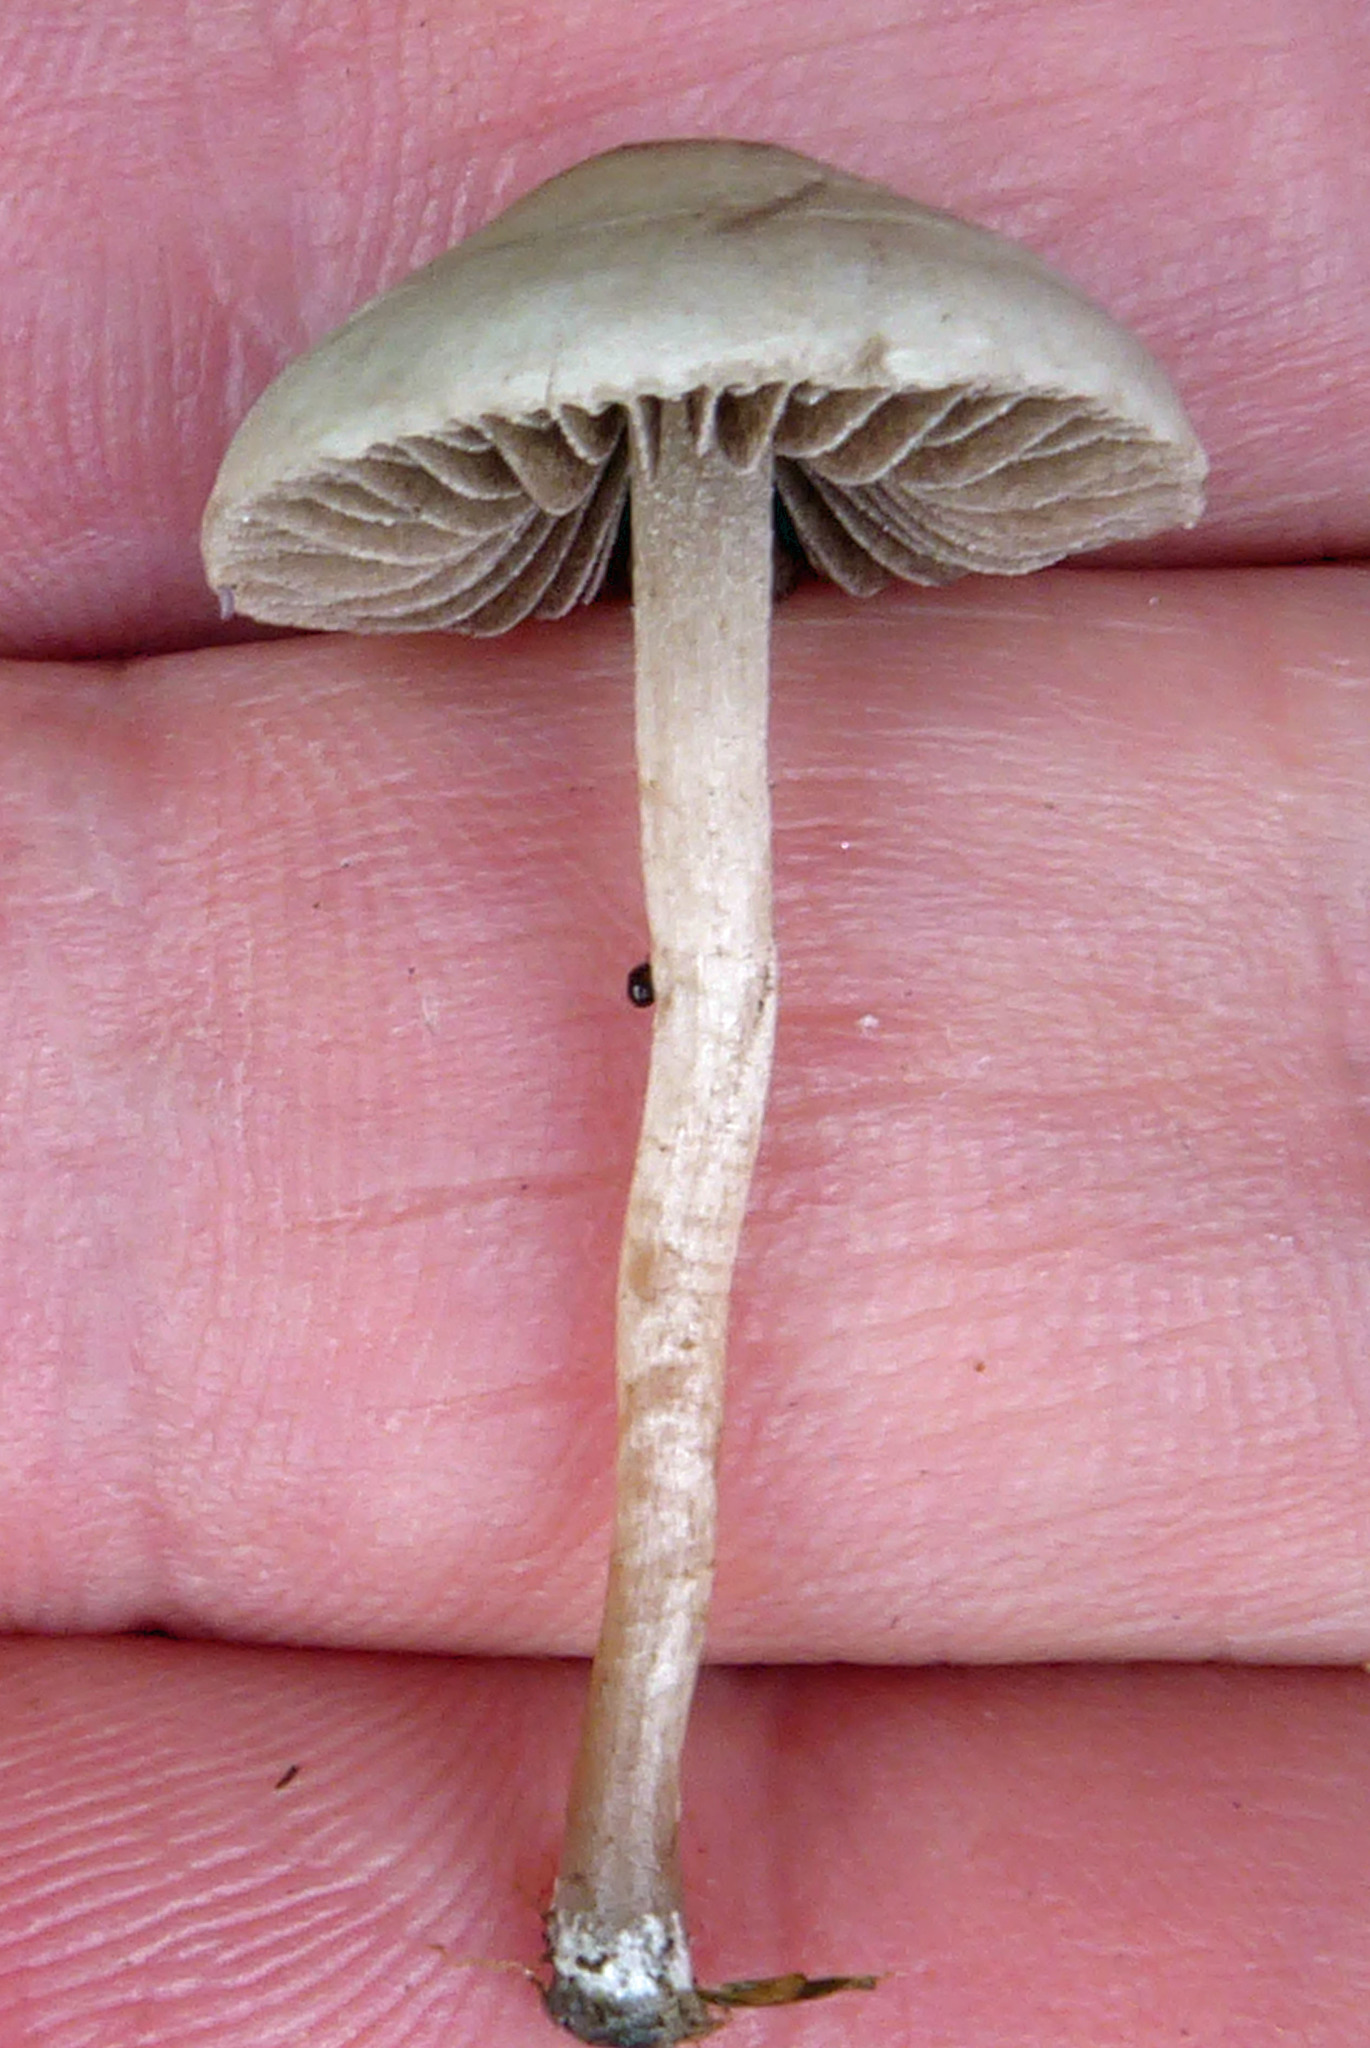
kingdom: Fungi
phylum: Basidiomycota
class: Agaricomycetes
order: Agaricales
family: Bolbitiaceae
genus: Panaeolina
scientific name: Panaeolina foenisecii
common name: Brown hay cap
